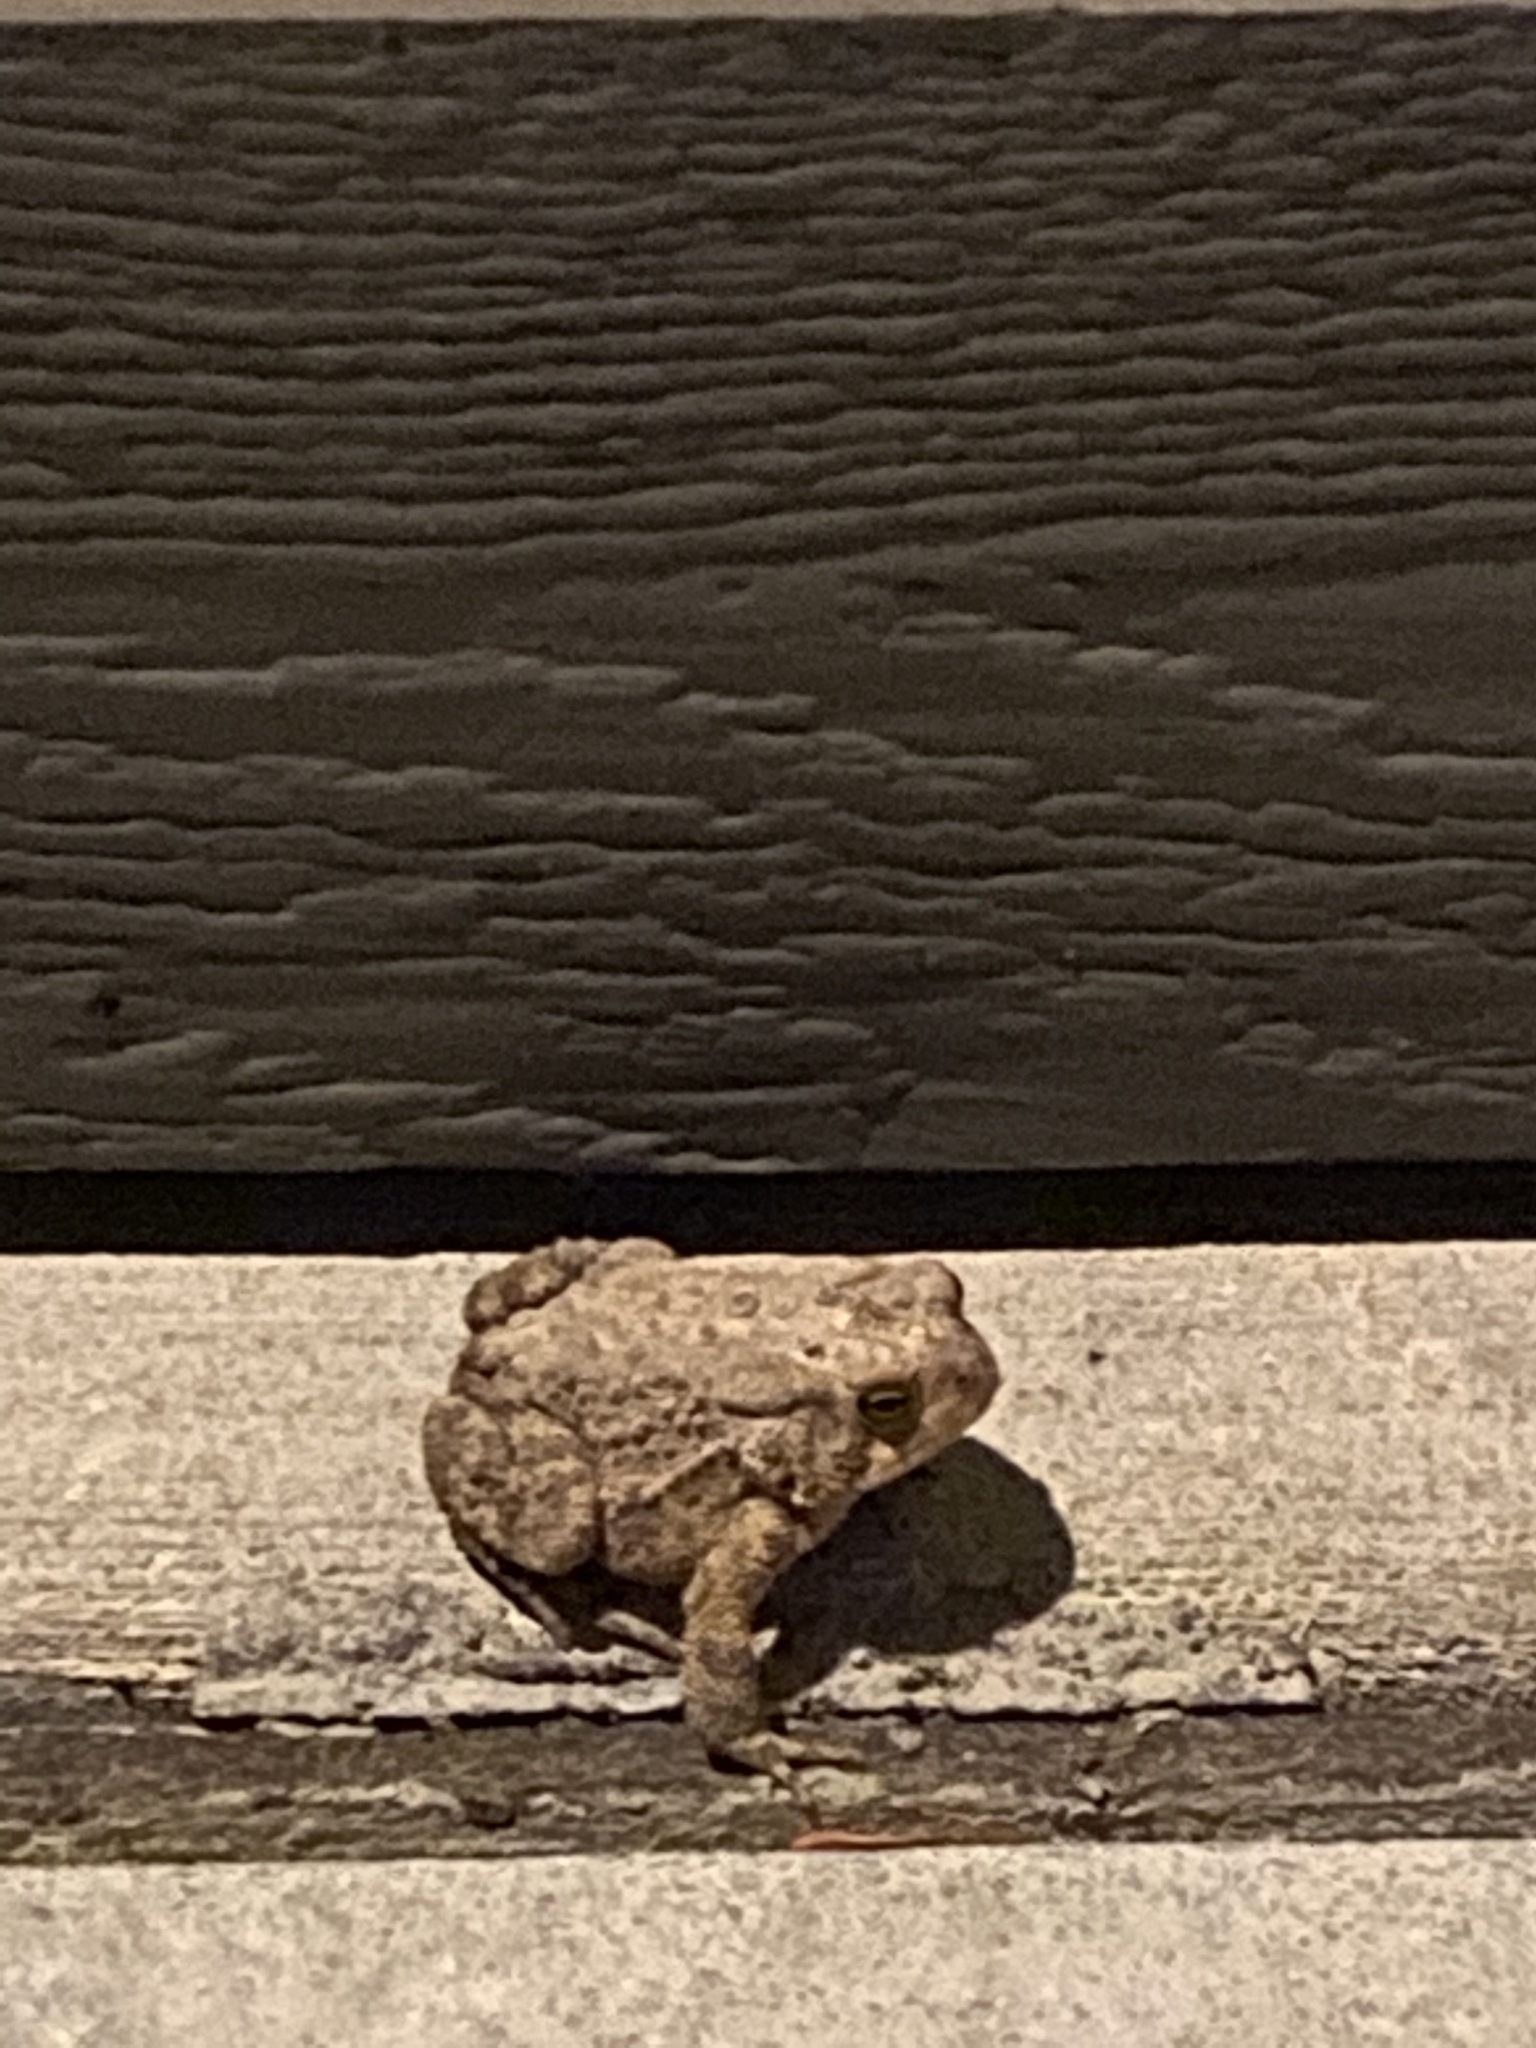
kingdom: Animalia
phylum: Chordata
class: Amphibia
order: Anura
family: Bufonidae
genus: Anaxyrus
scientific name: Anaxyrus americanus
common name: American toad
